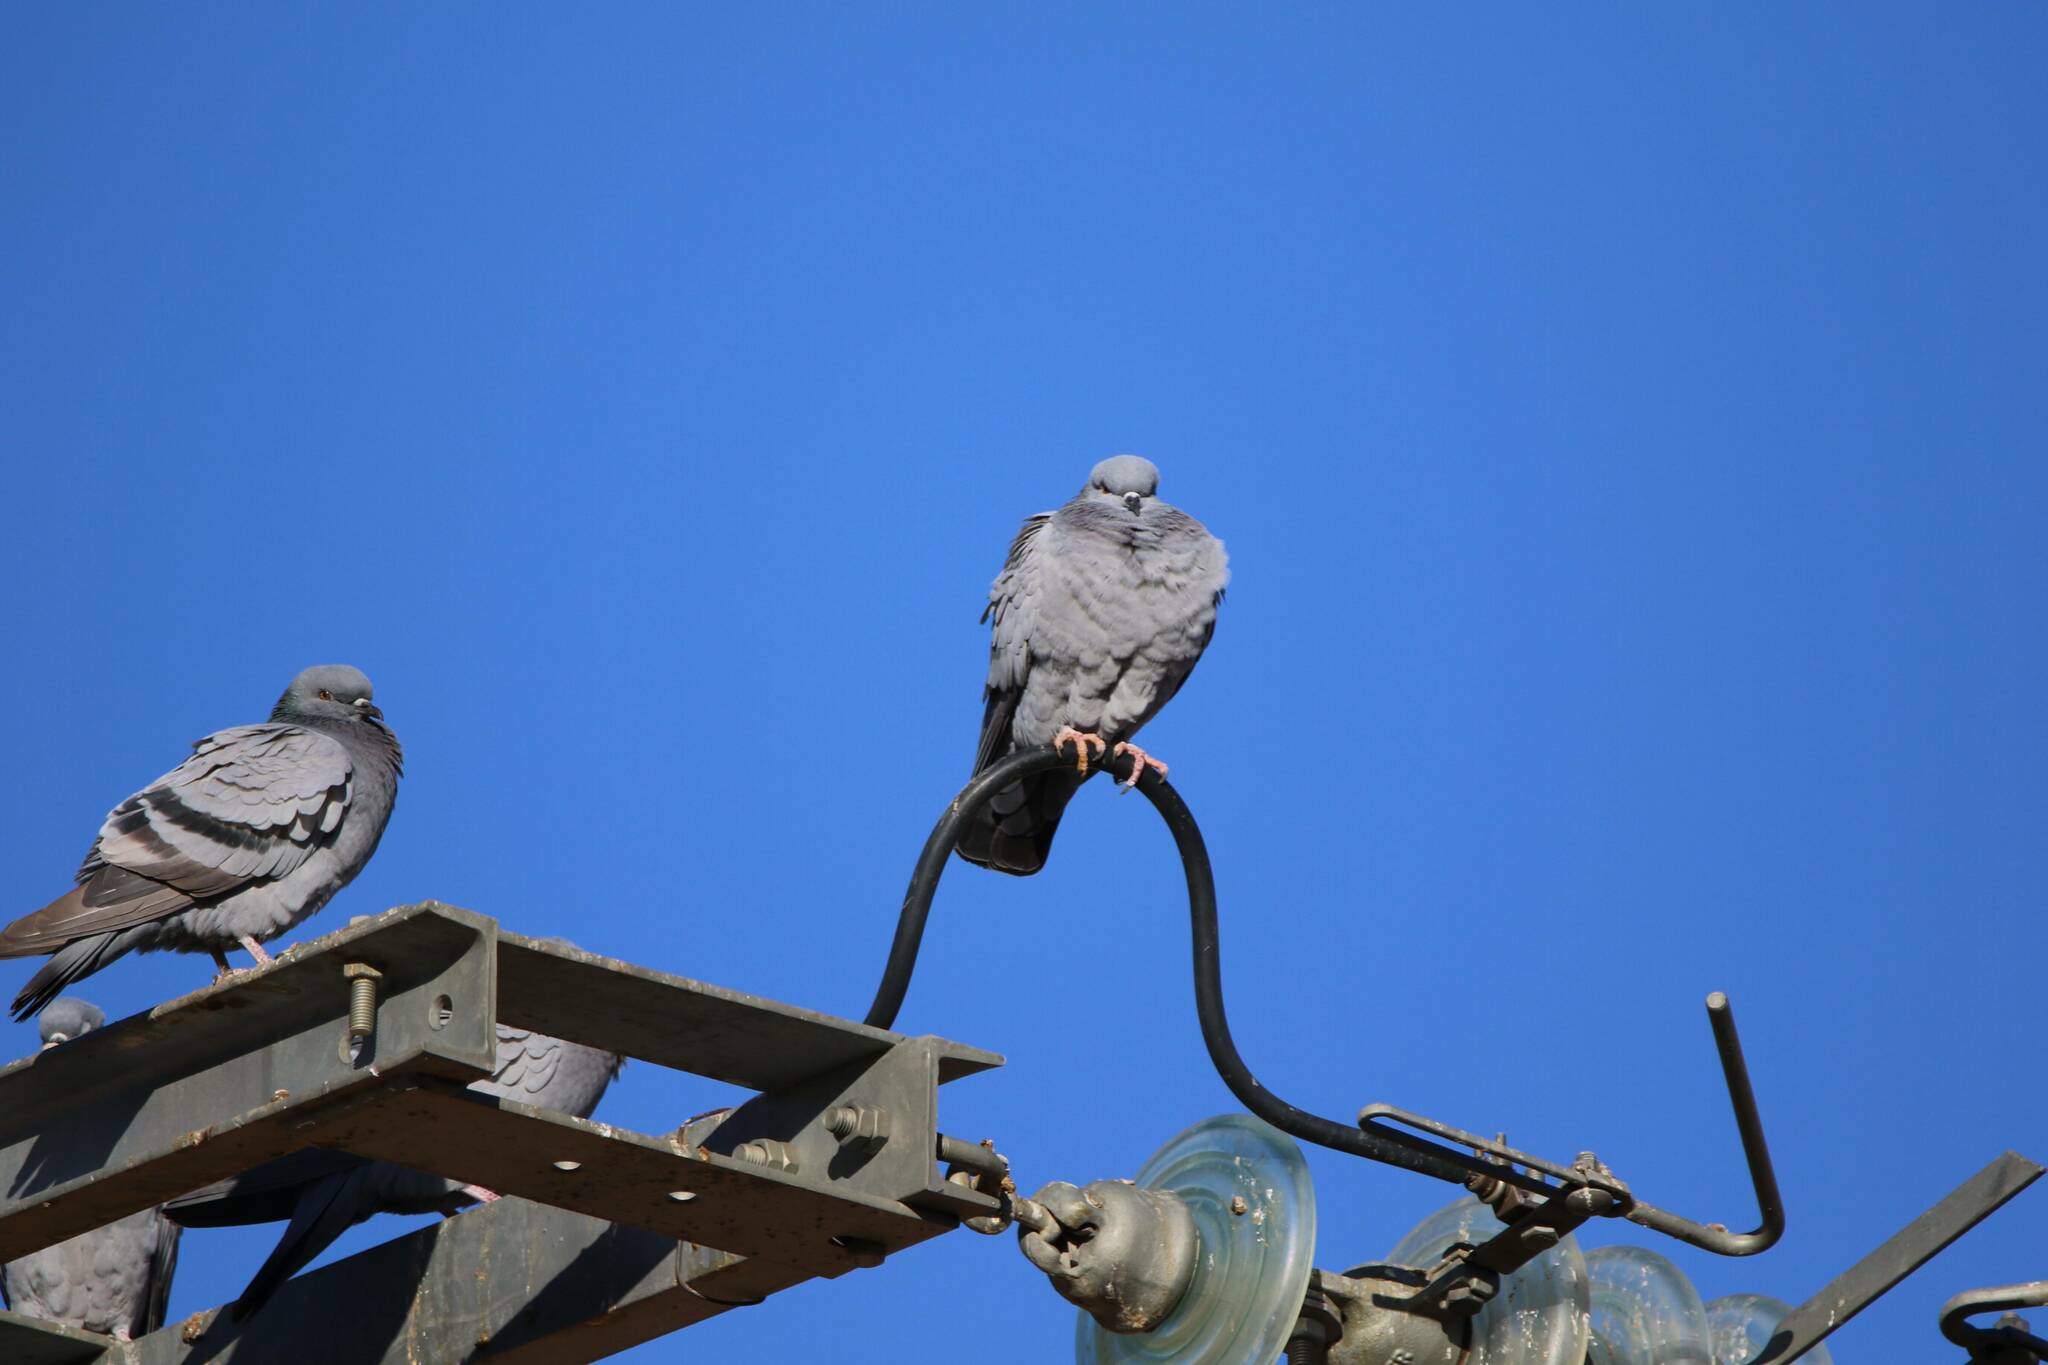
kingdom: Animalia
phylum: Chordata
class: Aves
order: Columbiformes
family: Columbidae
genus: Columba
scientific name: Columba livia
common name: Rock pigeon
